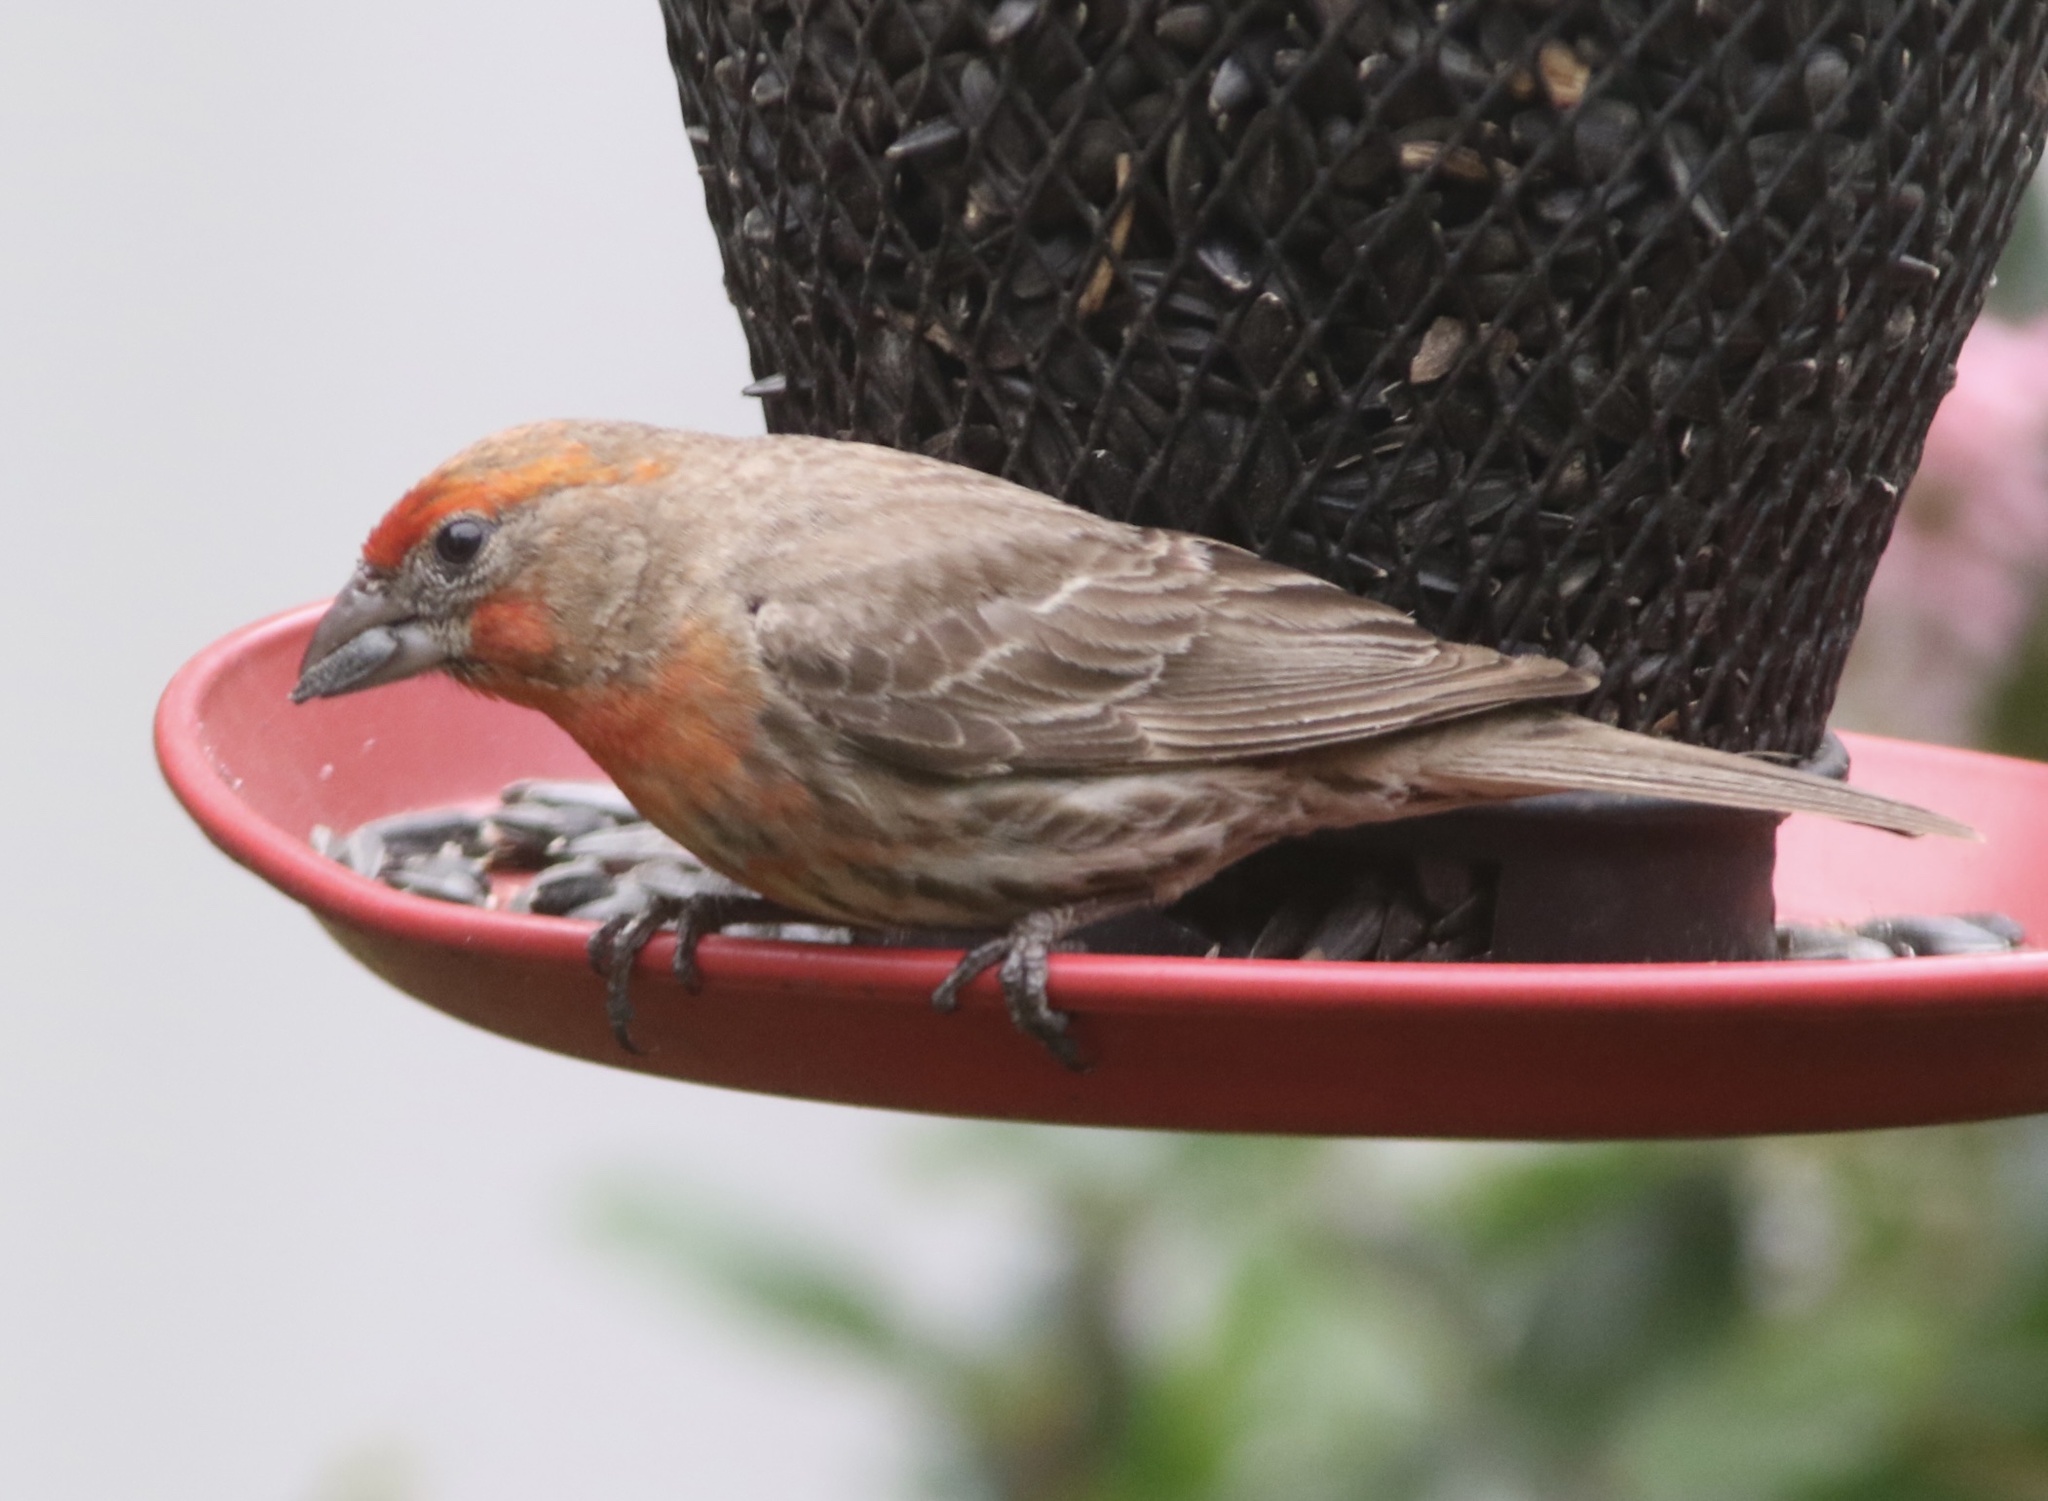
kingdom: Animalia
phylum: Chordata
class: Aves
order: Passeriformes
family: Fringillidae
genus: Haemorhous
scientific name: Haemorhous mexicanus
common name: House finch
